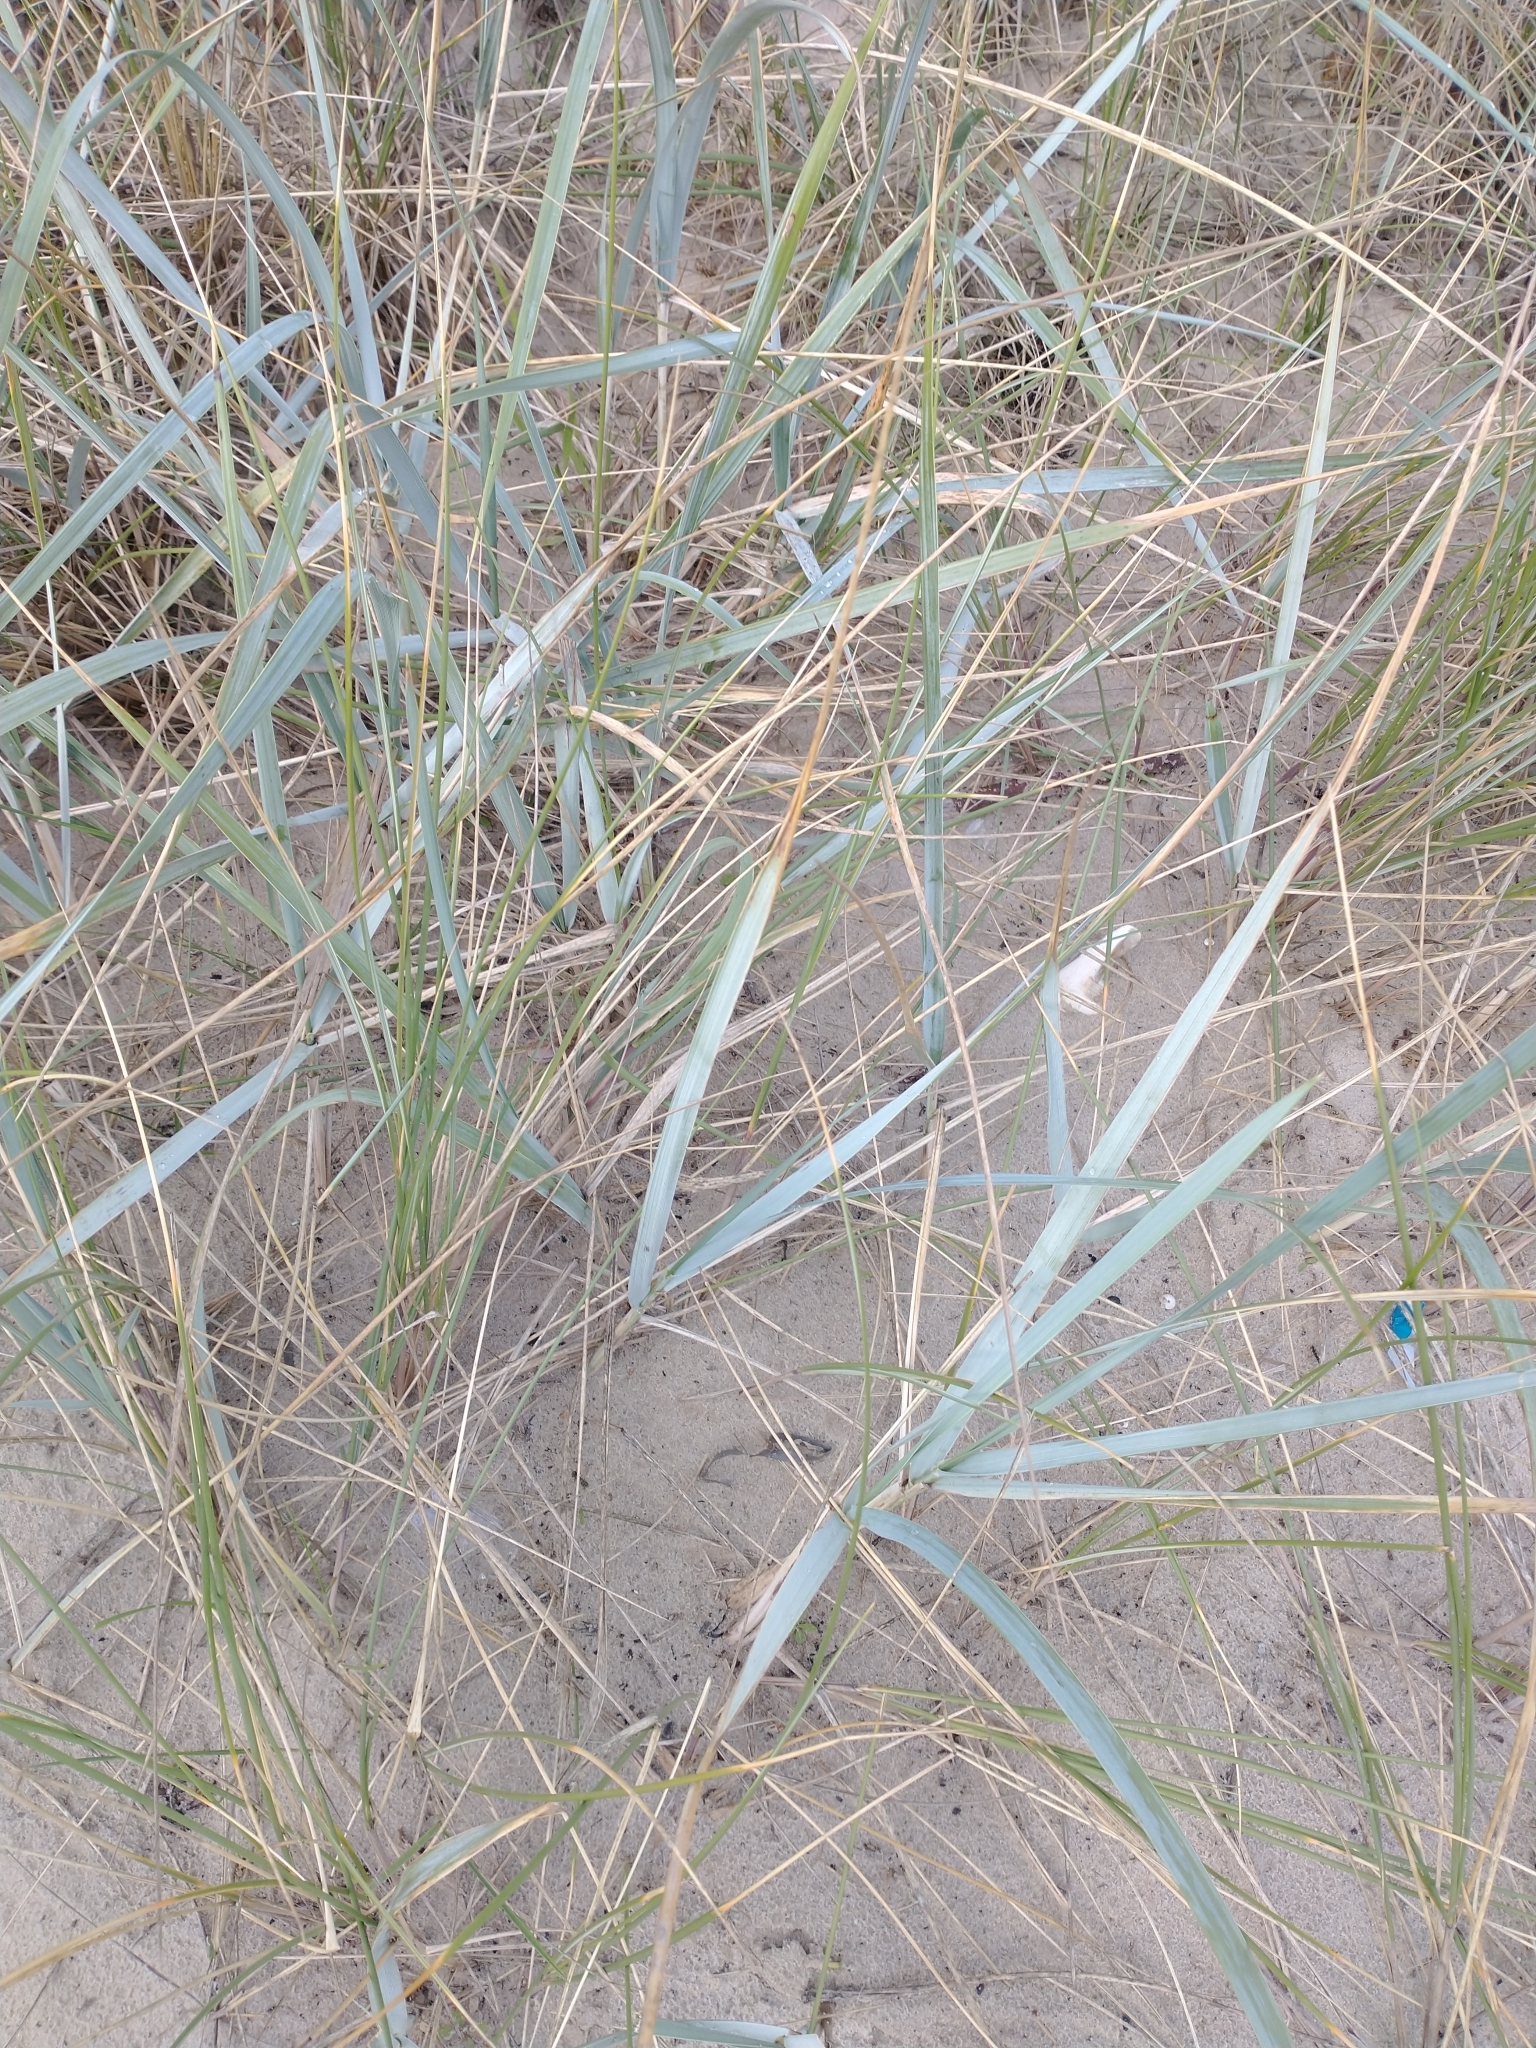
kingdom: Plantae
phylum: Tracheophyta
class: Liliopsida
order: Poales
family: Poaceae
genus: Leymus
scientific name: Leymus arenarius
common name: Lyme-grass
